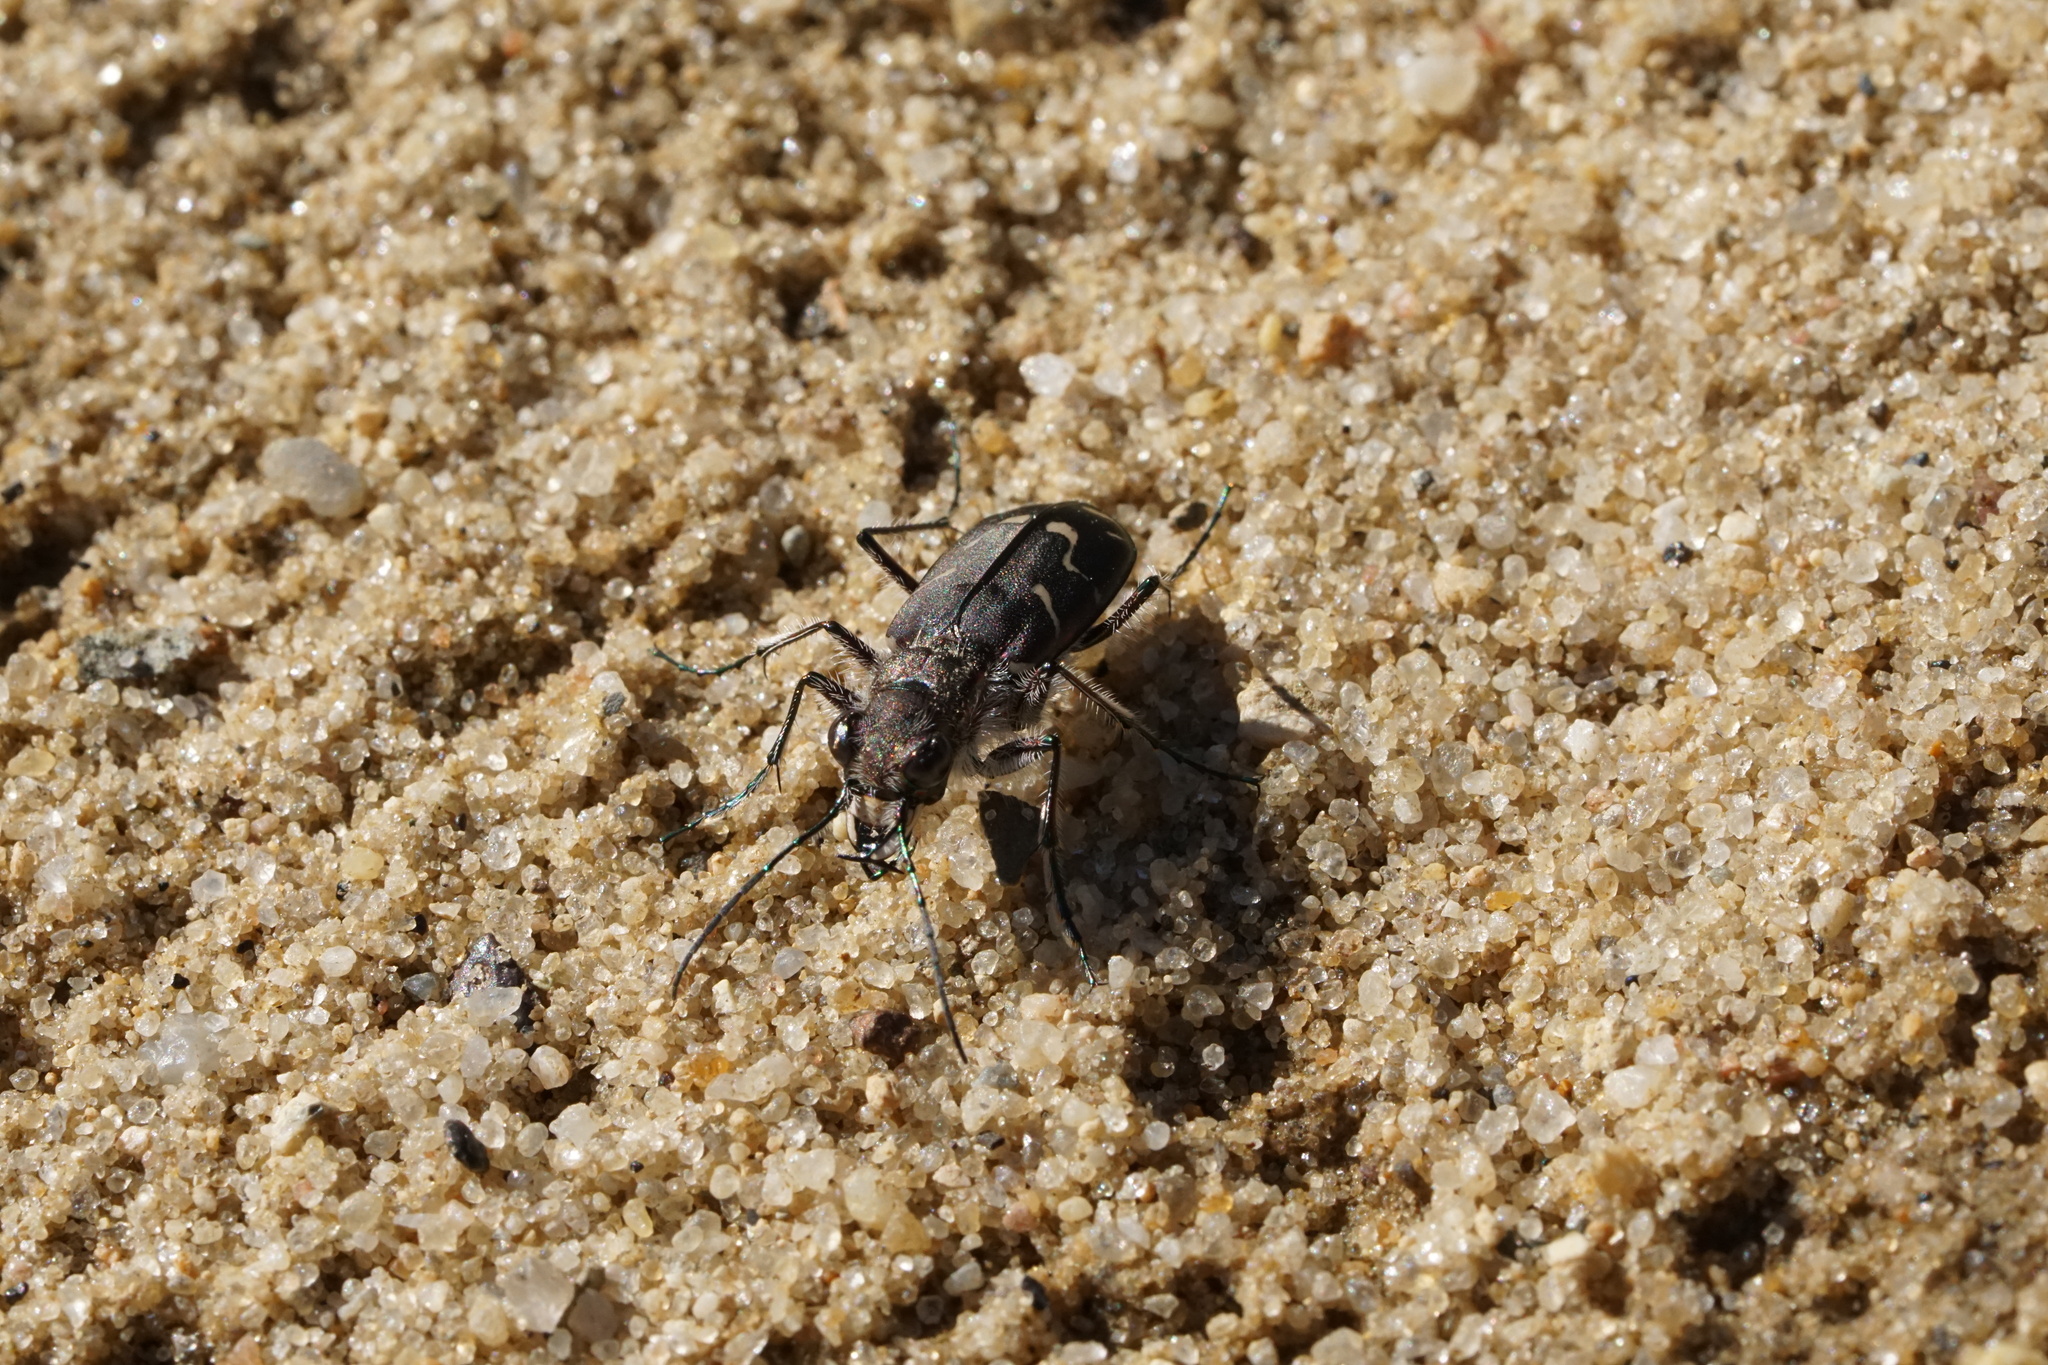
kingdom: Animalia
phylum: Arthropoda
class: Insecta
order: Coleoptera
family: Carabidae
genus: Cicindela
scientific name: Cicindela tranquebarica
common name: Oblique-lined tiger beetle
